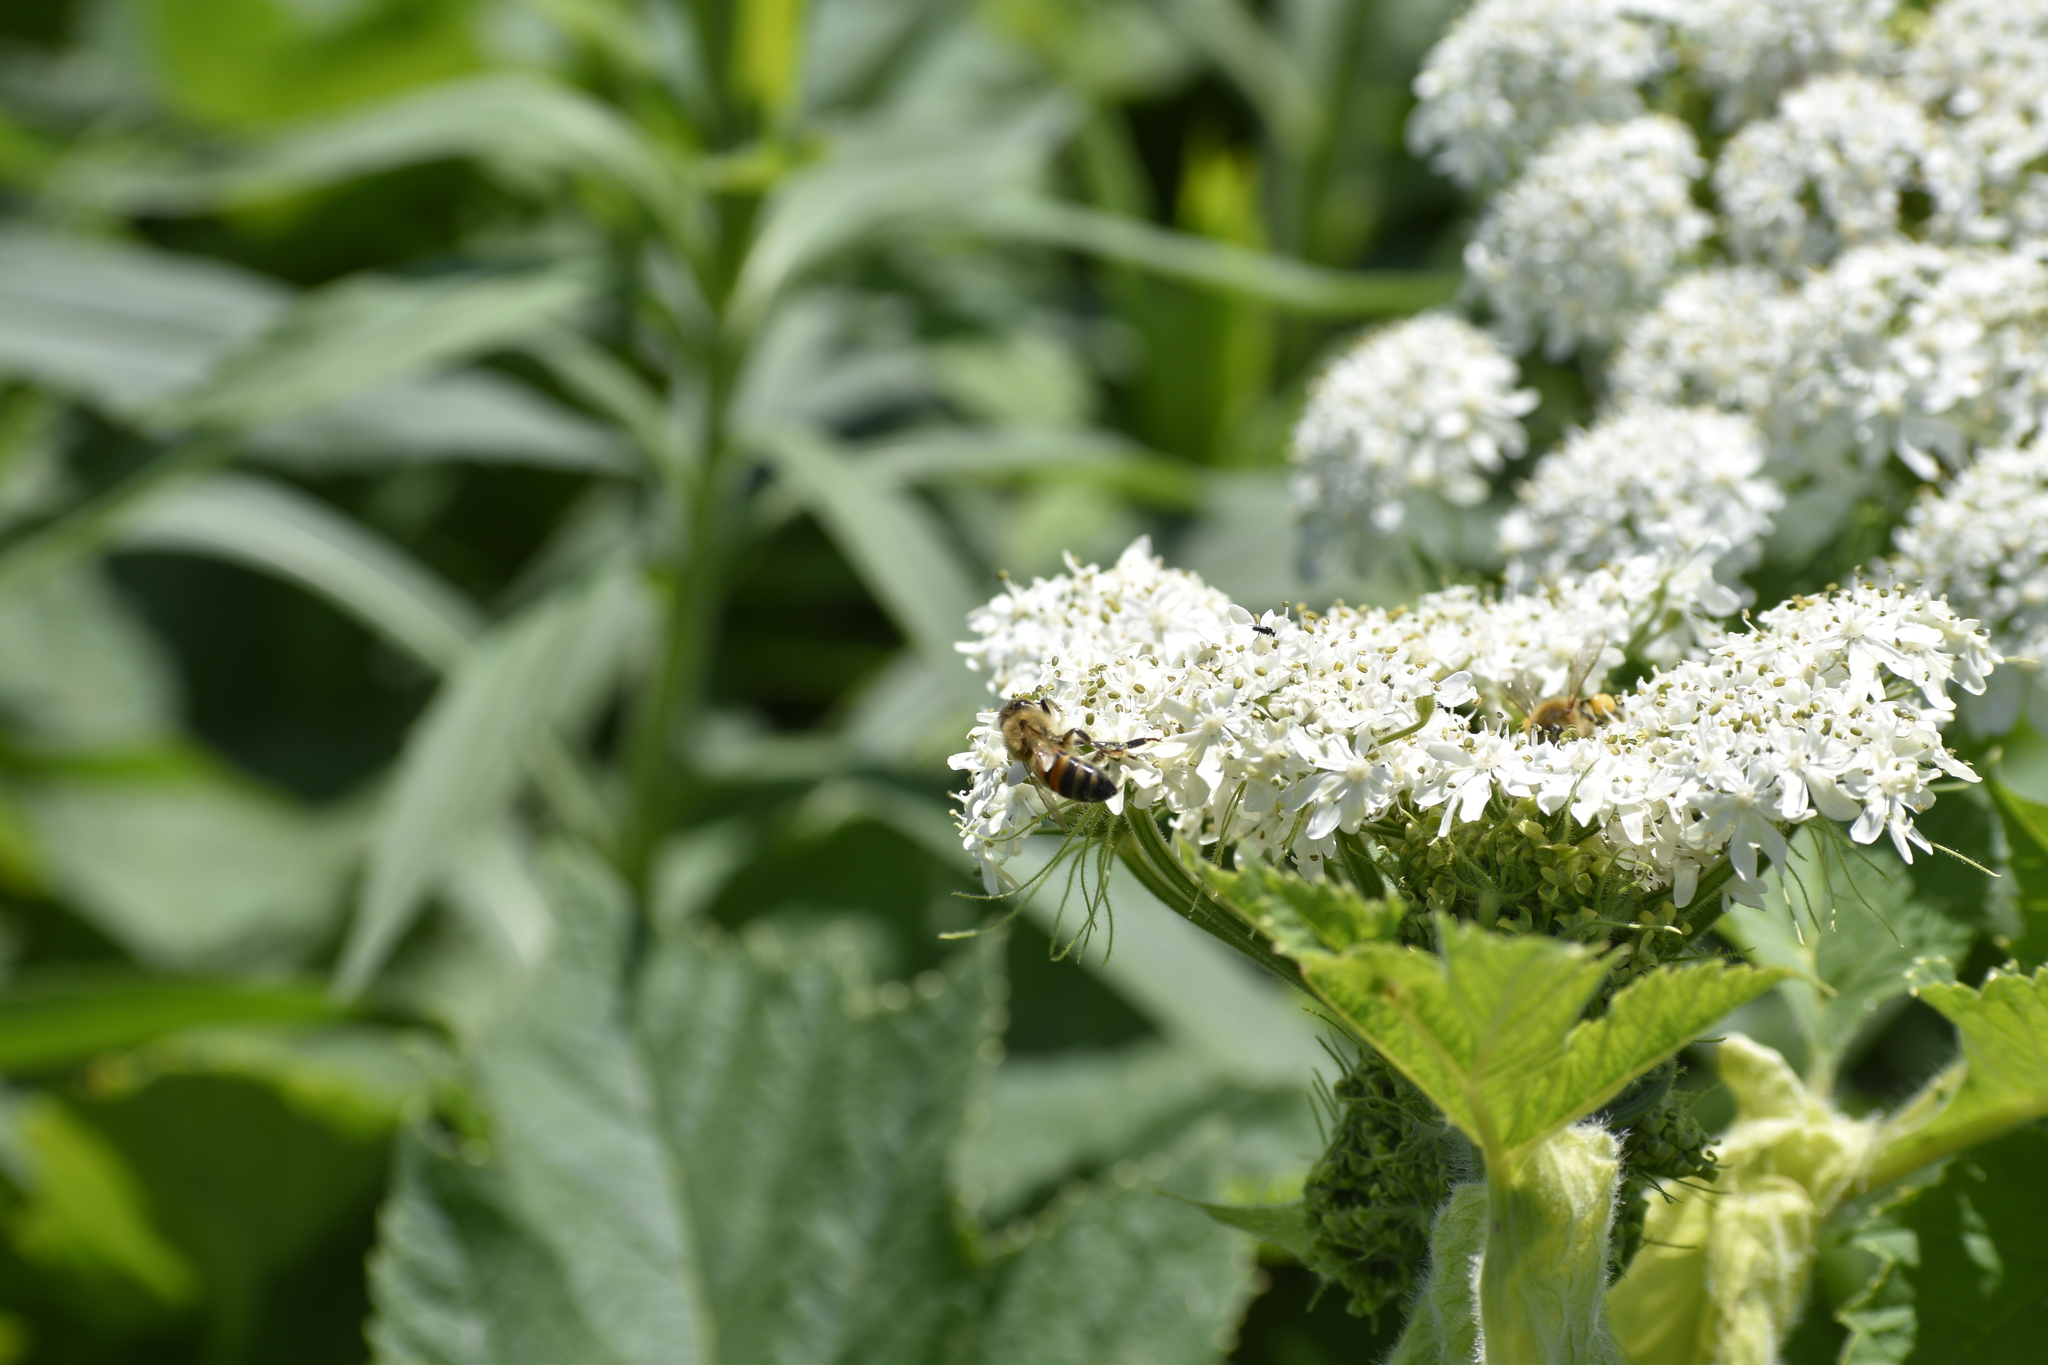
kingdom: Animalia
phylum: Arthropoda
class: Insecta
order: Hymenoptera
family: Apidae
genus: Apis
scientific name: Apis mellifera
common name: Honey bee
